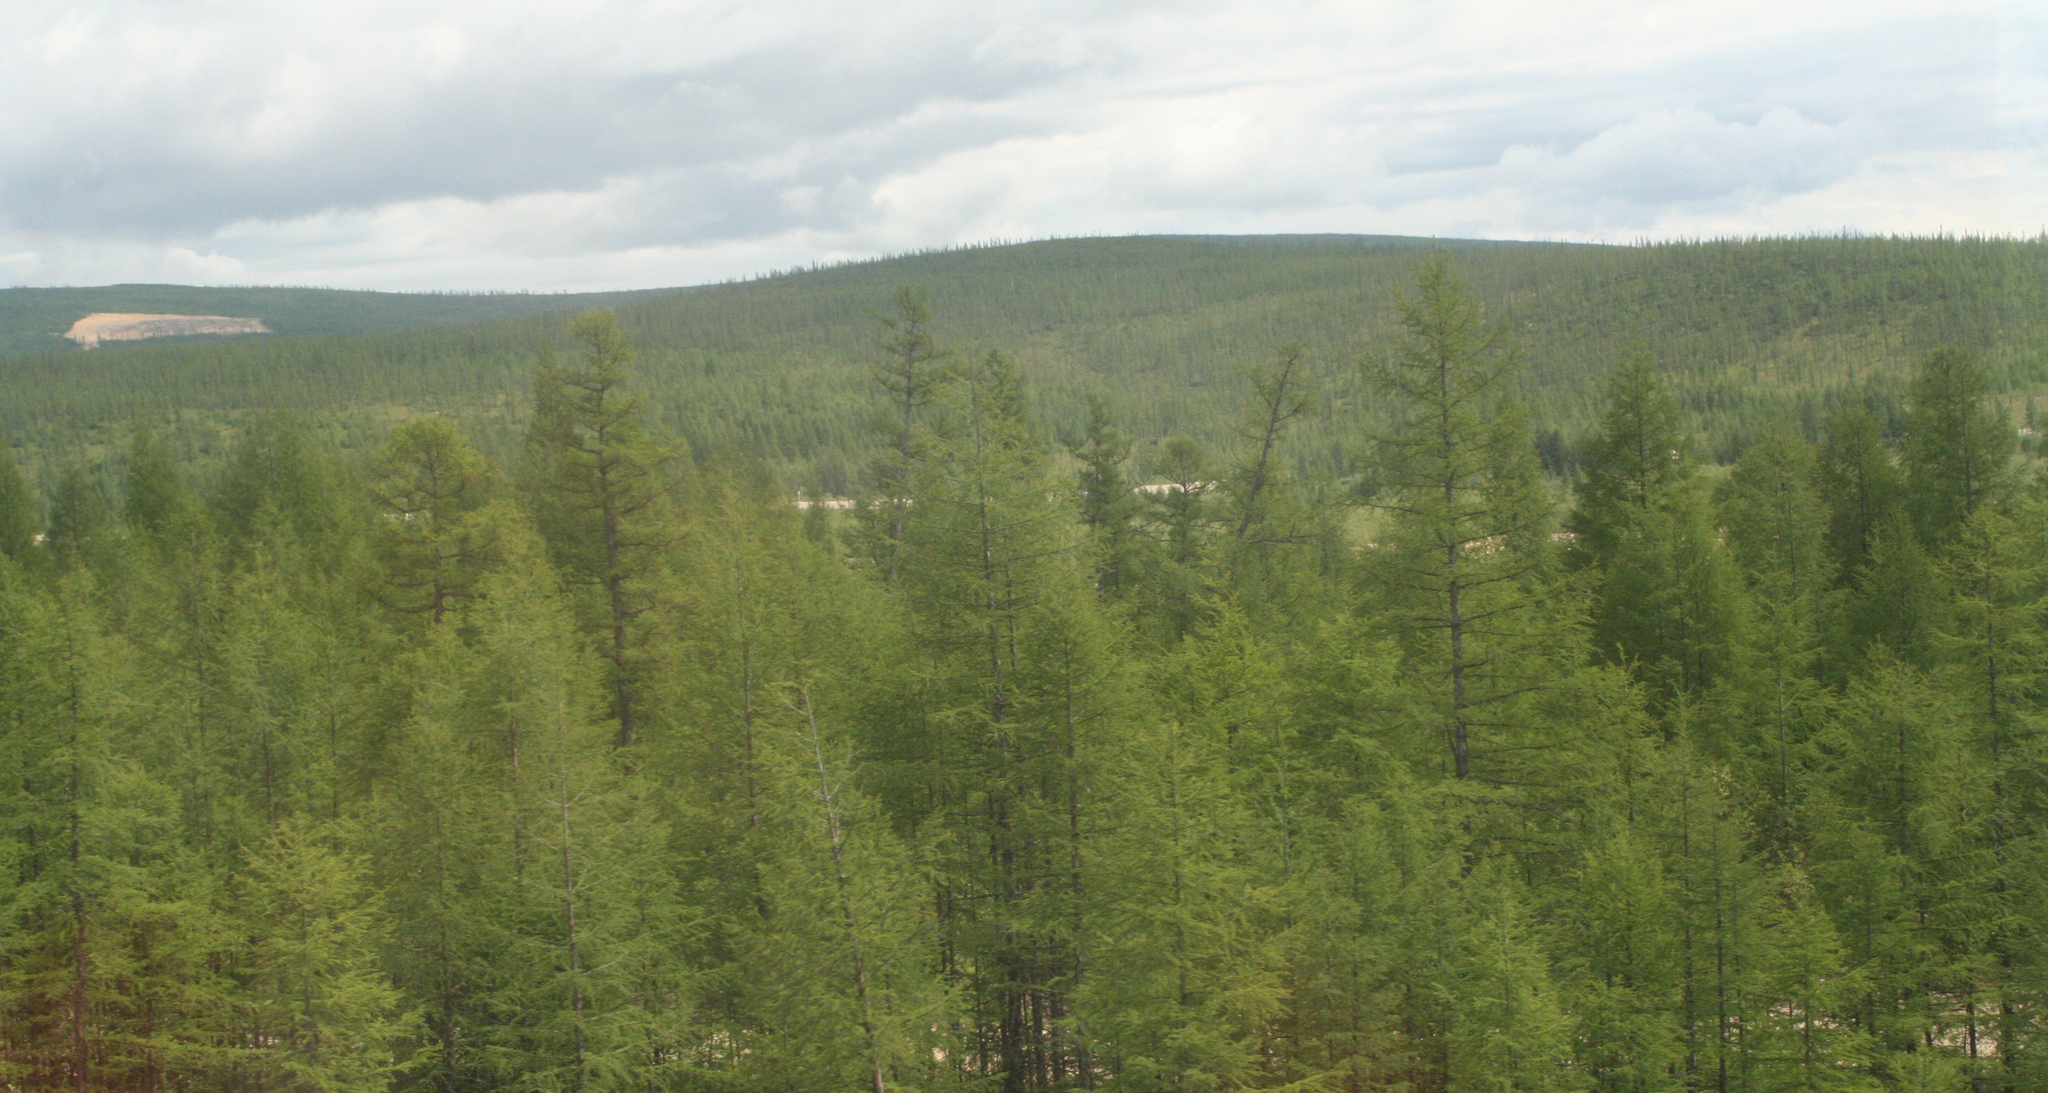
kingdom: Plantae
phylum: Tracheophyta
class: Pinopsida
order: Pinales
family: Pinaceae
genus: Larix
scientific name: Larix gmelinii
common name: Dahurian larch
